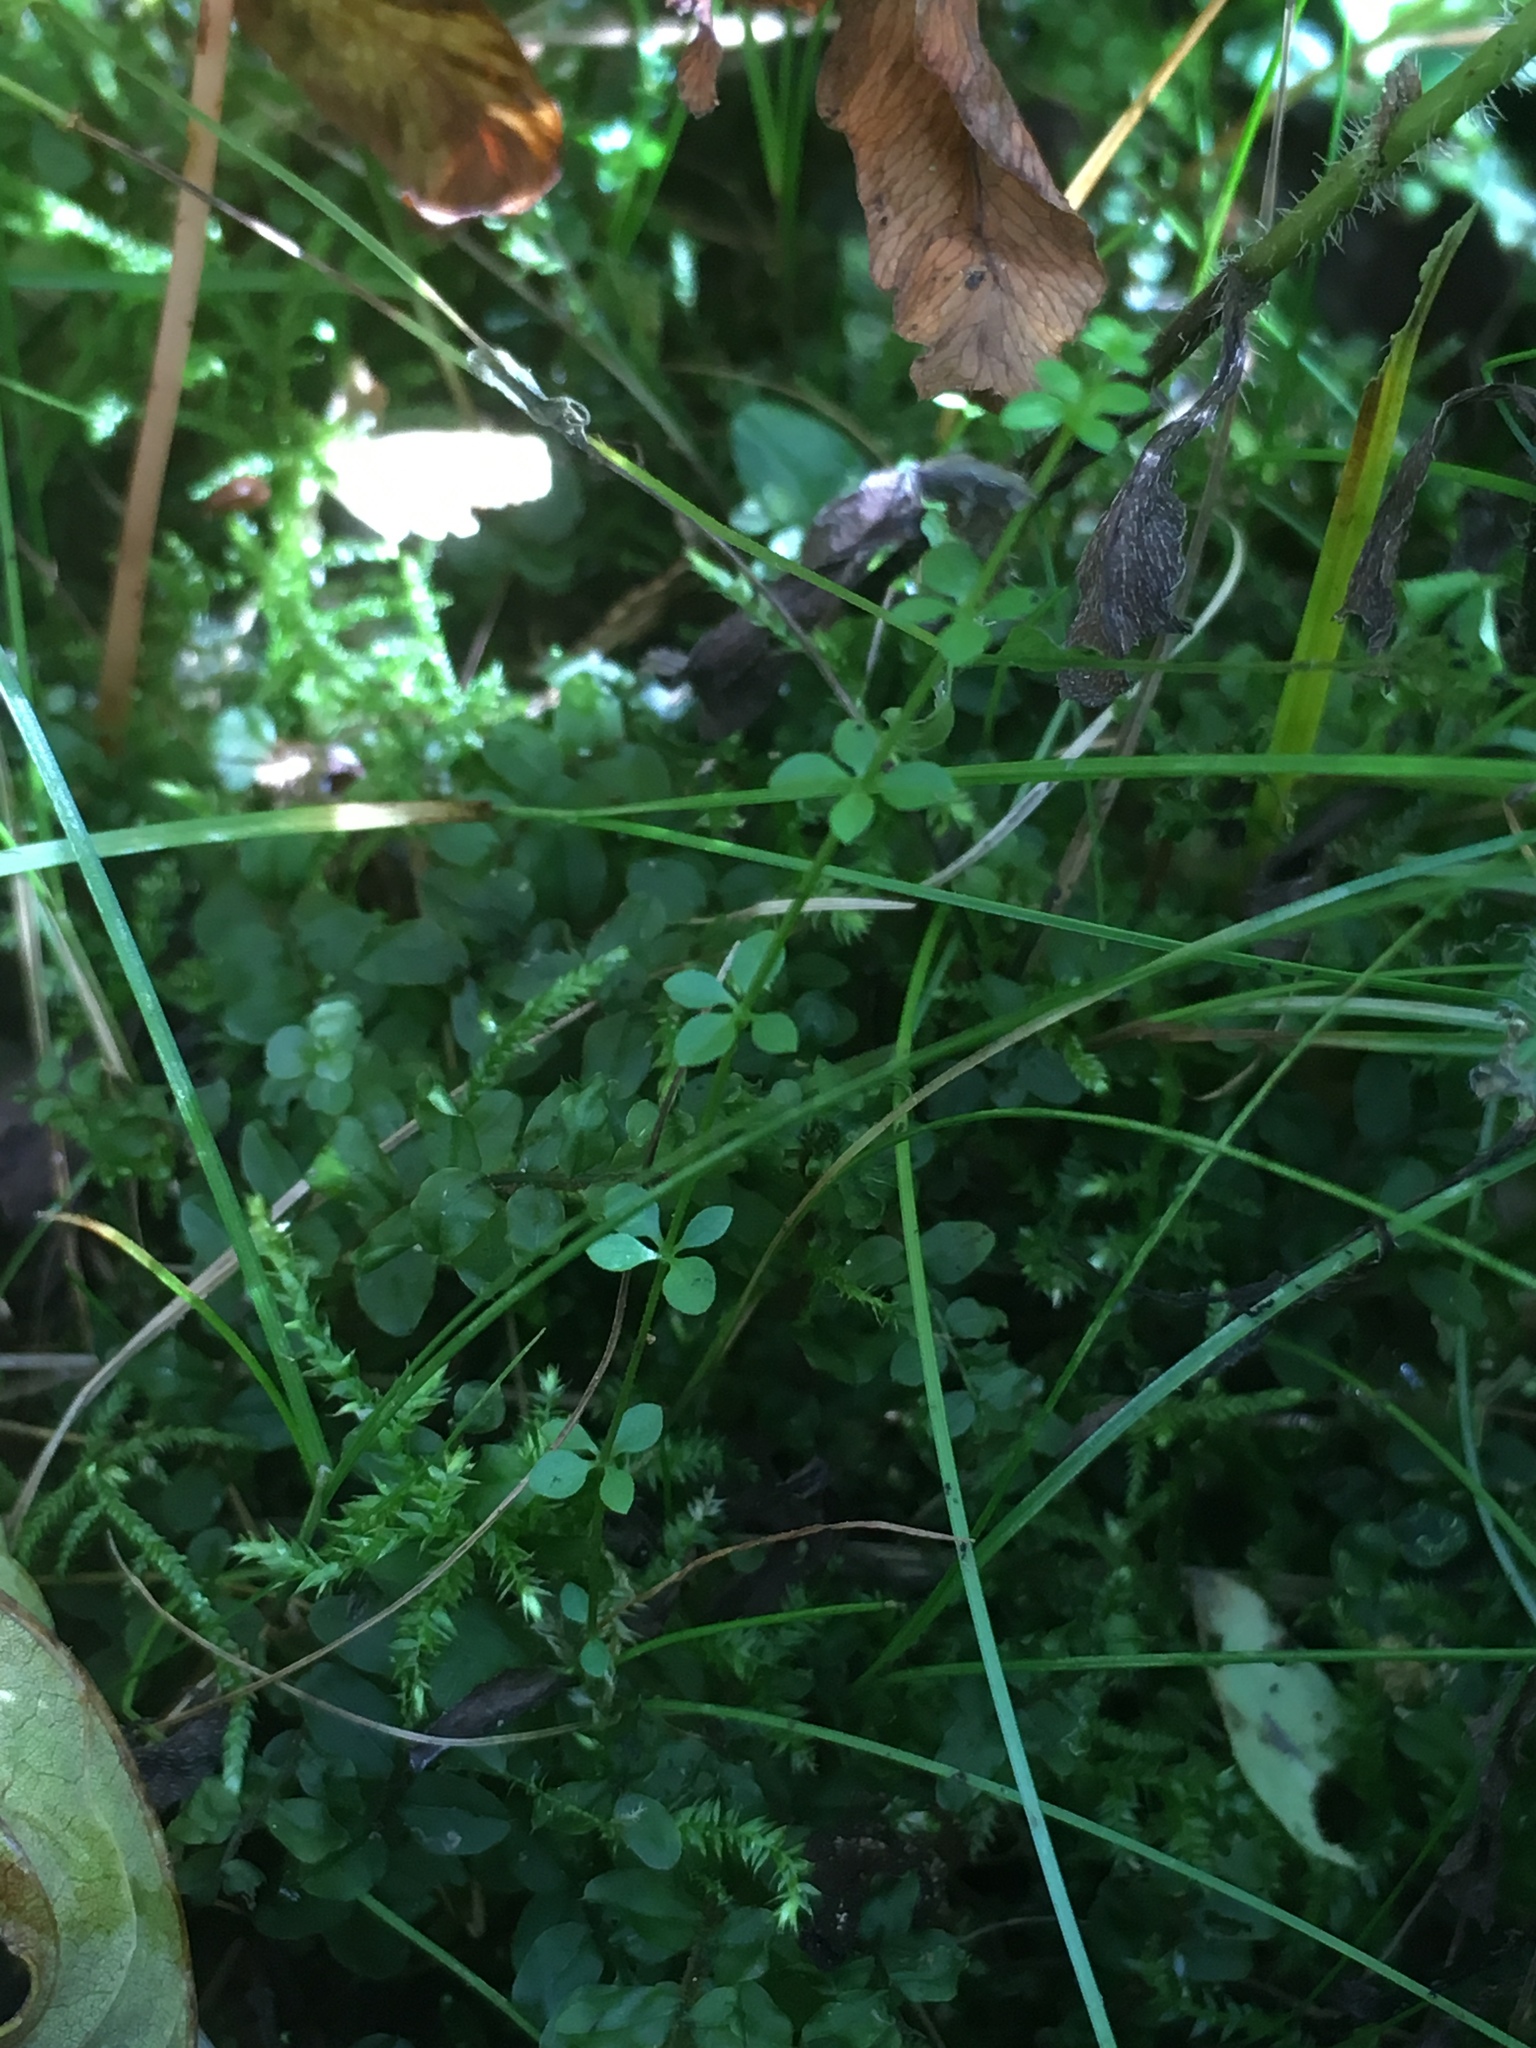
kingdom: Plantae
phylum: Tracheophyta
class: Magnoliopsida
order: Gentianales
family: Rubiaceae
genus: Galium
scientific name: Galium palustre
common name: Common marsh-bedstraw
